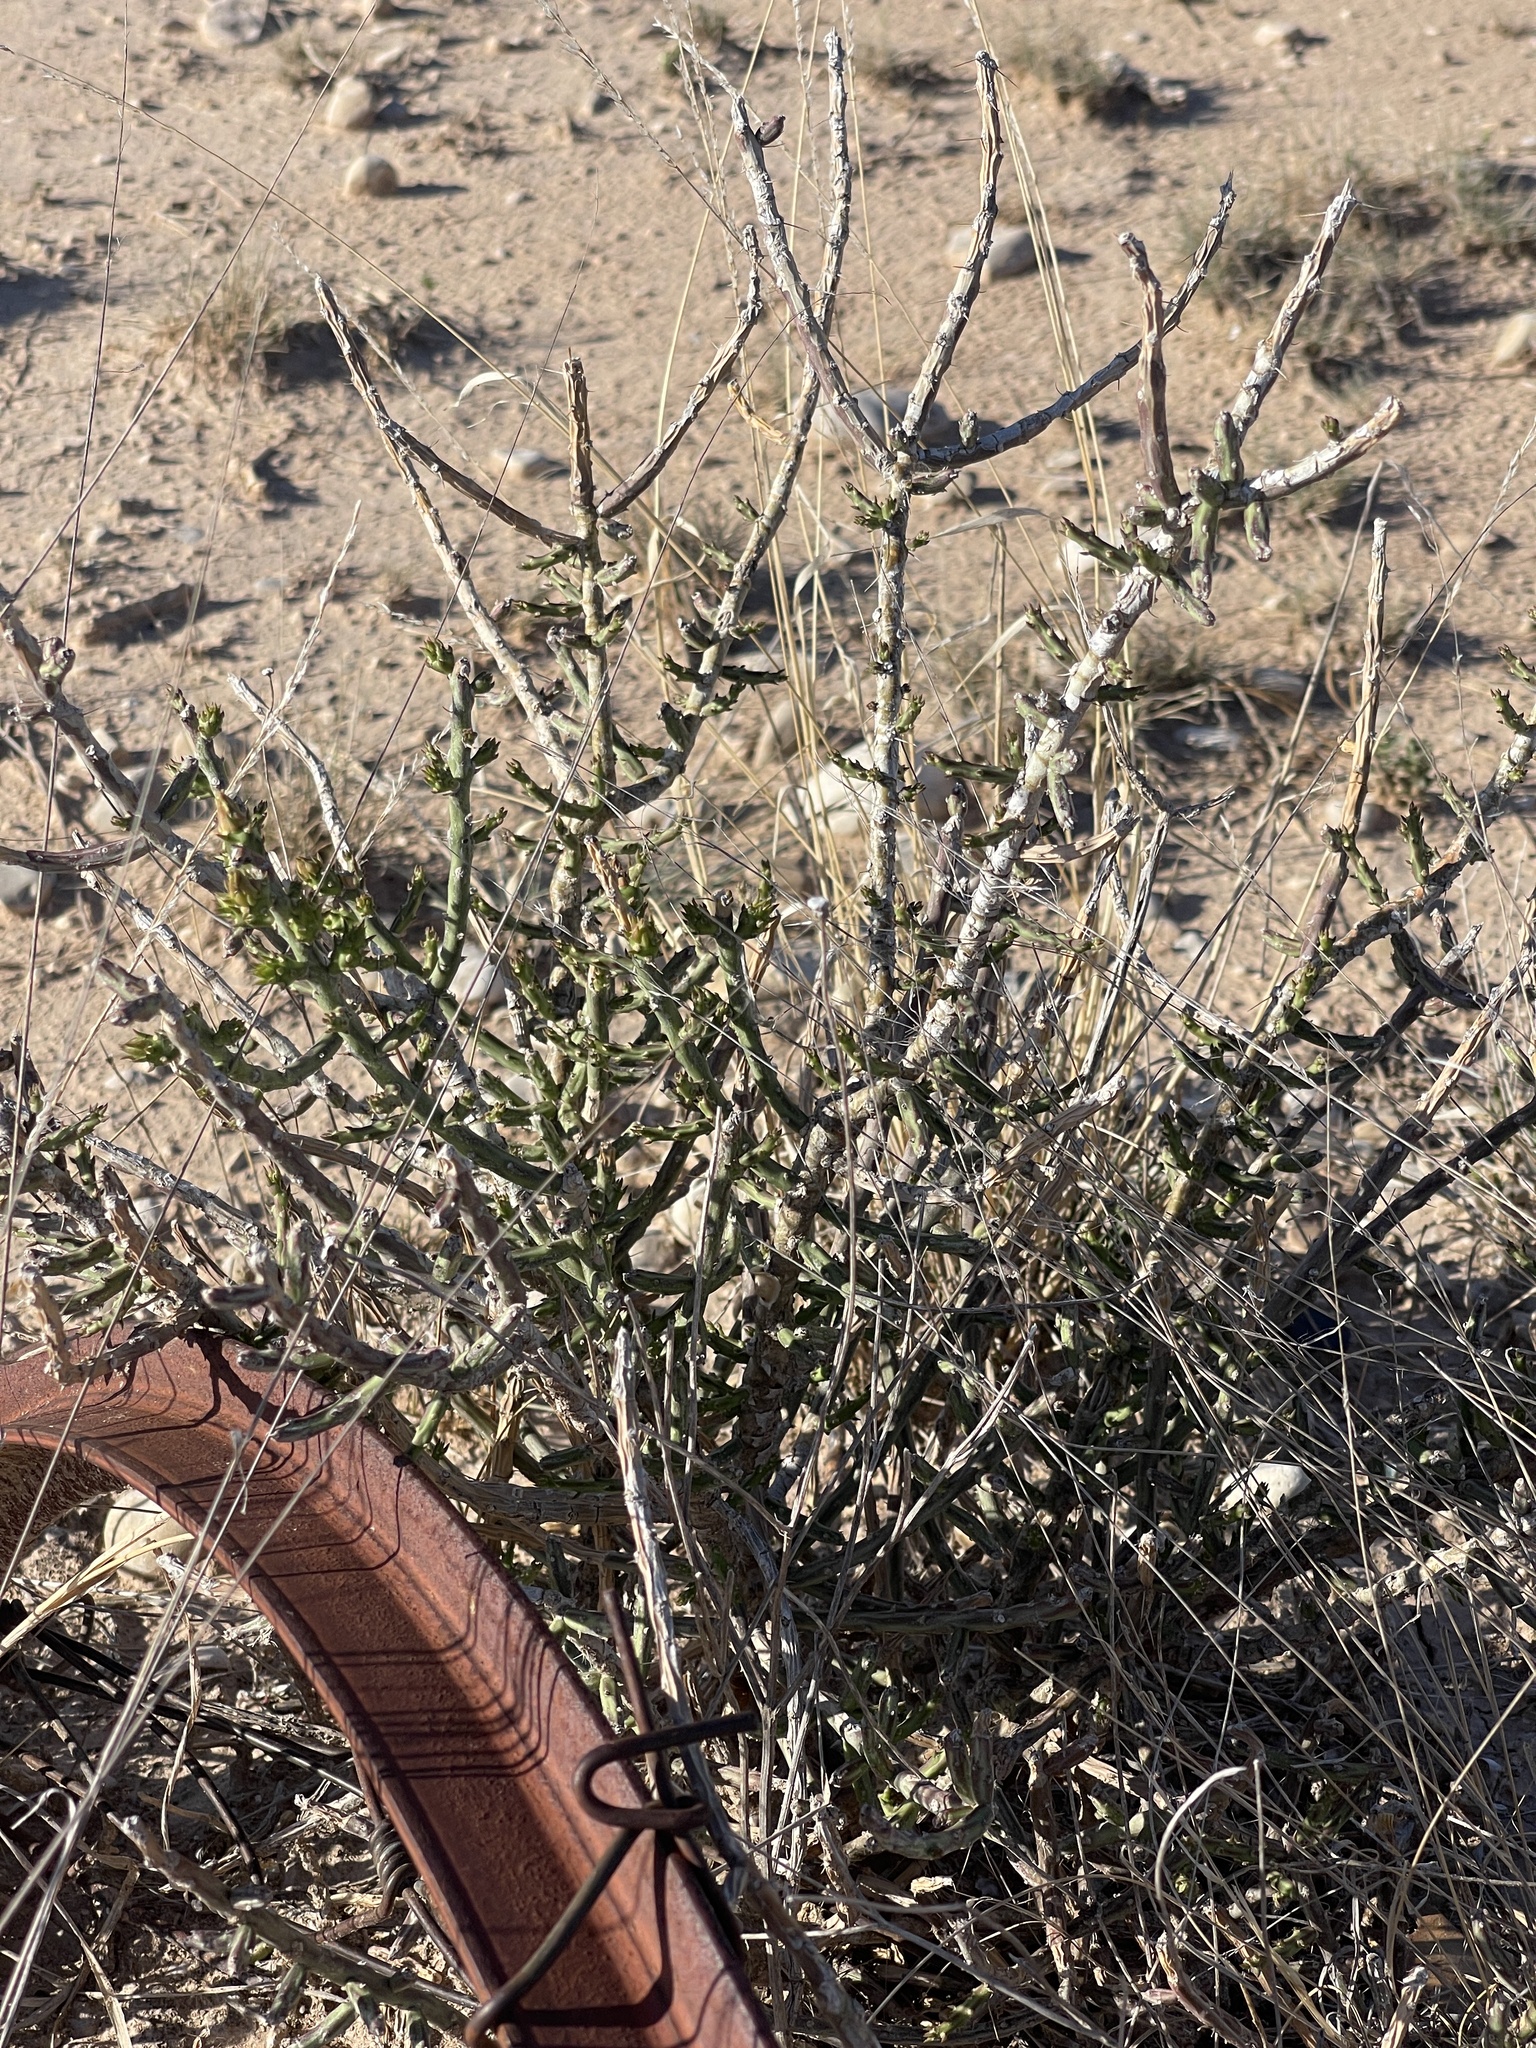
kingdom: Plantae
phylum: Tracheophyta
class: Magnoliopsida
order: Caryophyllales
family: Cactaceae
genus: Cylindropuntia
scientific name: Cylindropuntia leptocaulis
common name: Christmas cactus
